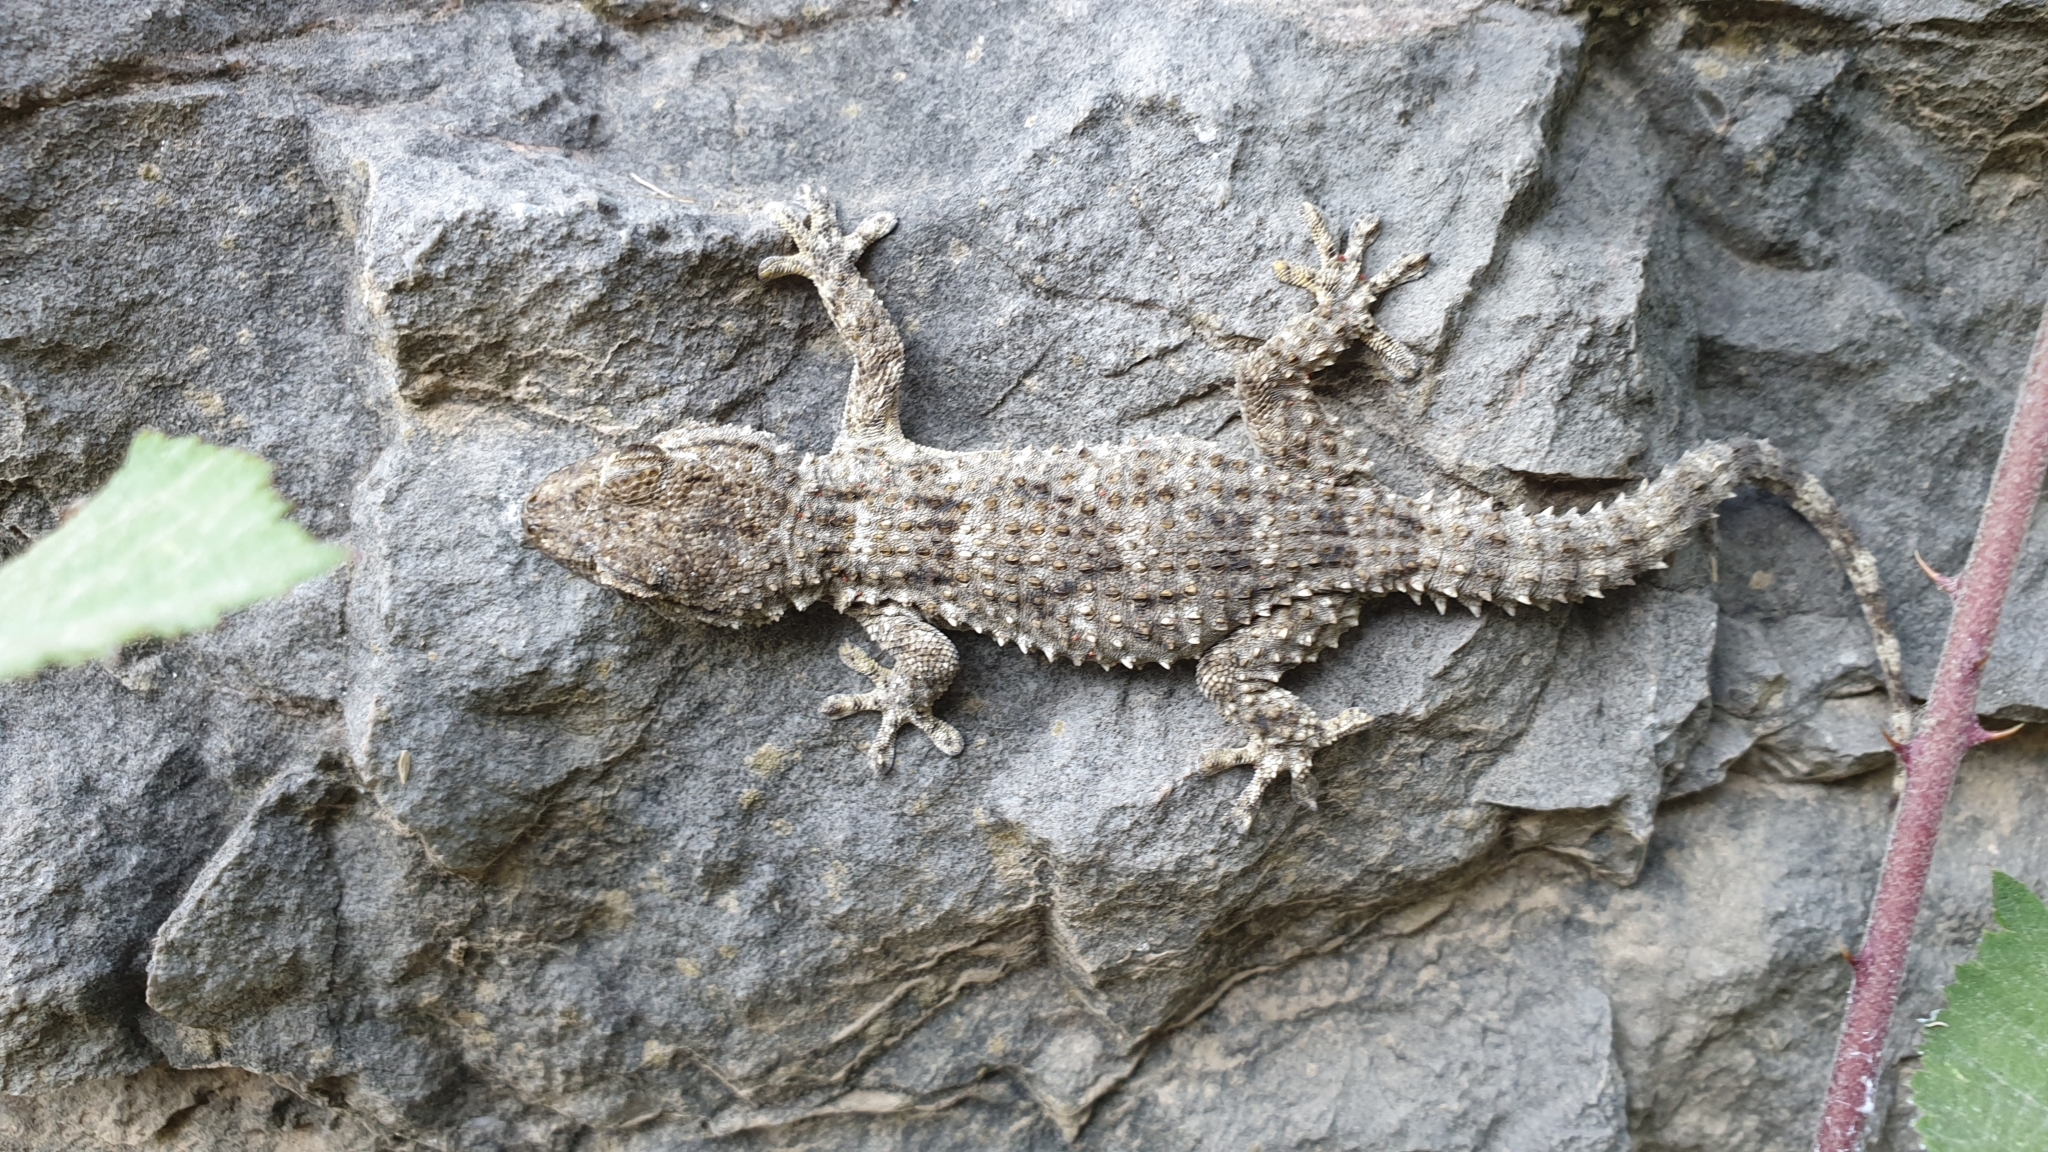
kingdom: Animalia
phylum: Chordata
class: Squamata
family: Phyllodactylidae
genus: Tarentola
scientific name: Tarentola mauritanica
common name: Moorish gecko
